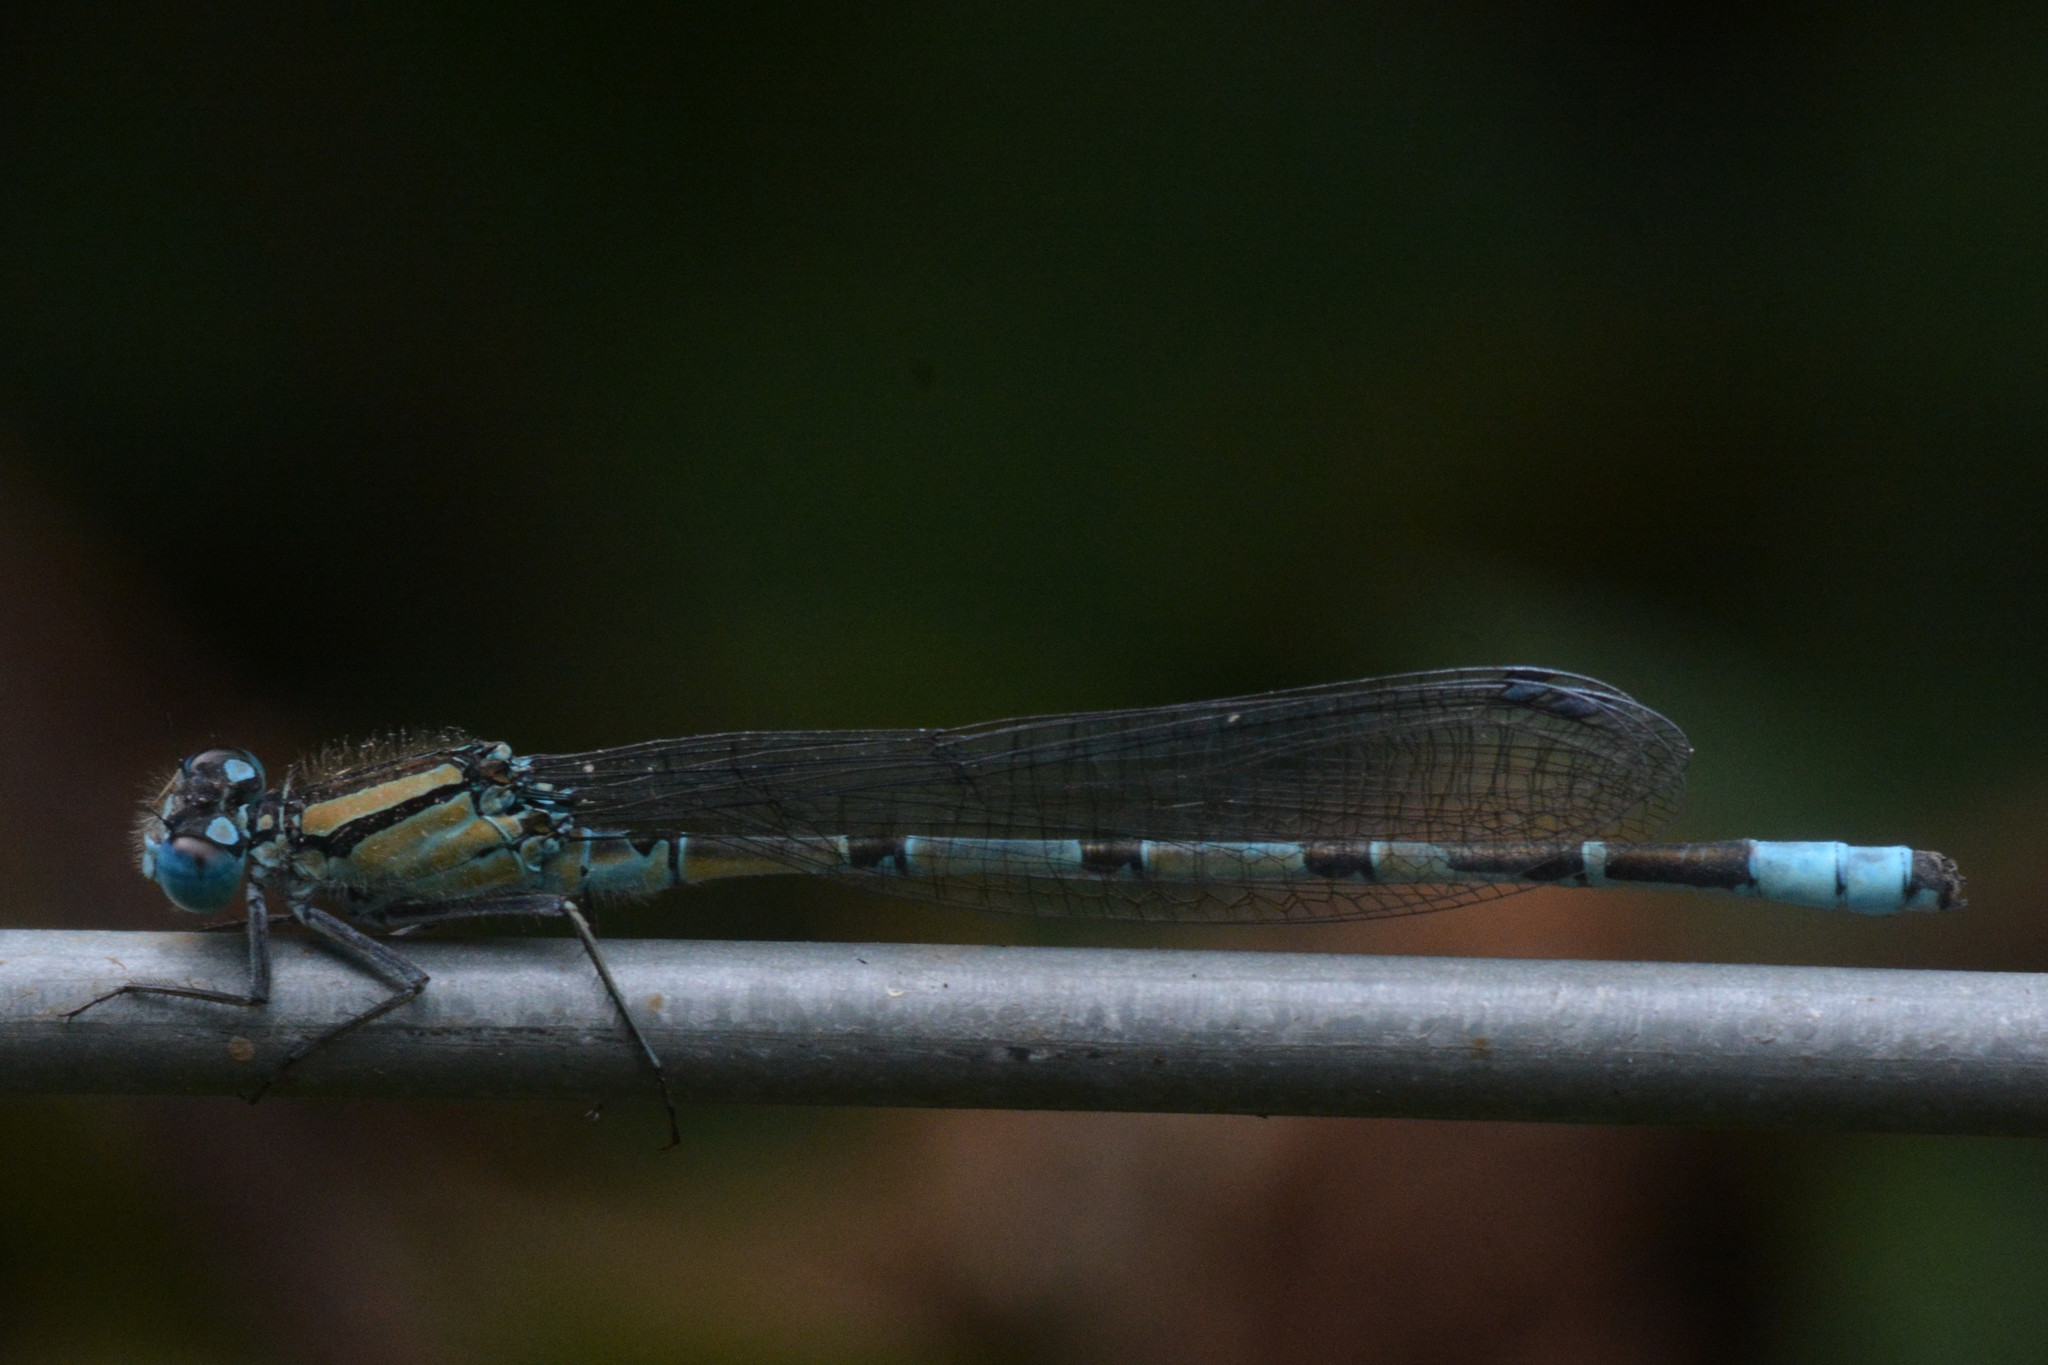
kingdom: Animalia
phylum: Arthropoda
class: Insecta
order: Odonata
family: Coenagrionidae
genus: Enallagma
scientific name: Enallagma cyathigerum
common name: Common blue damselfly
